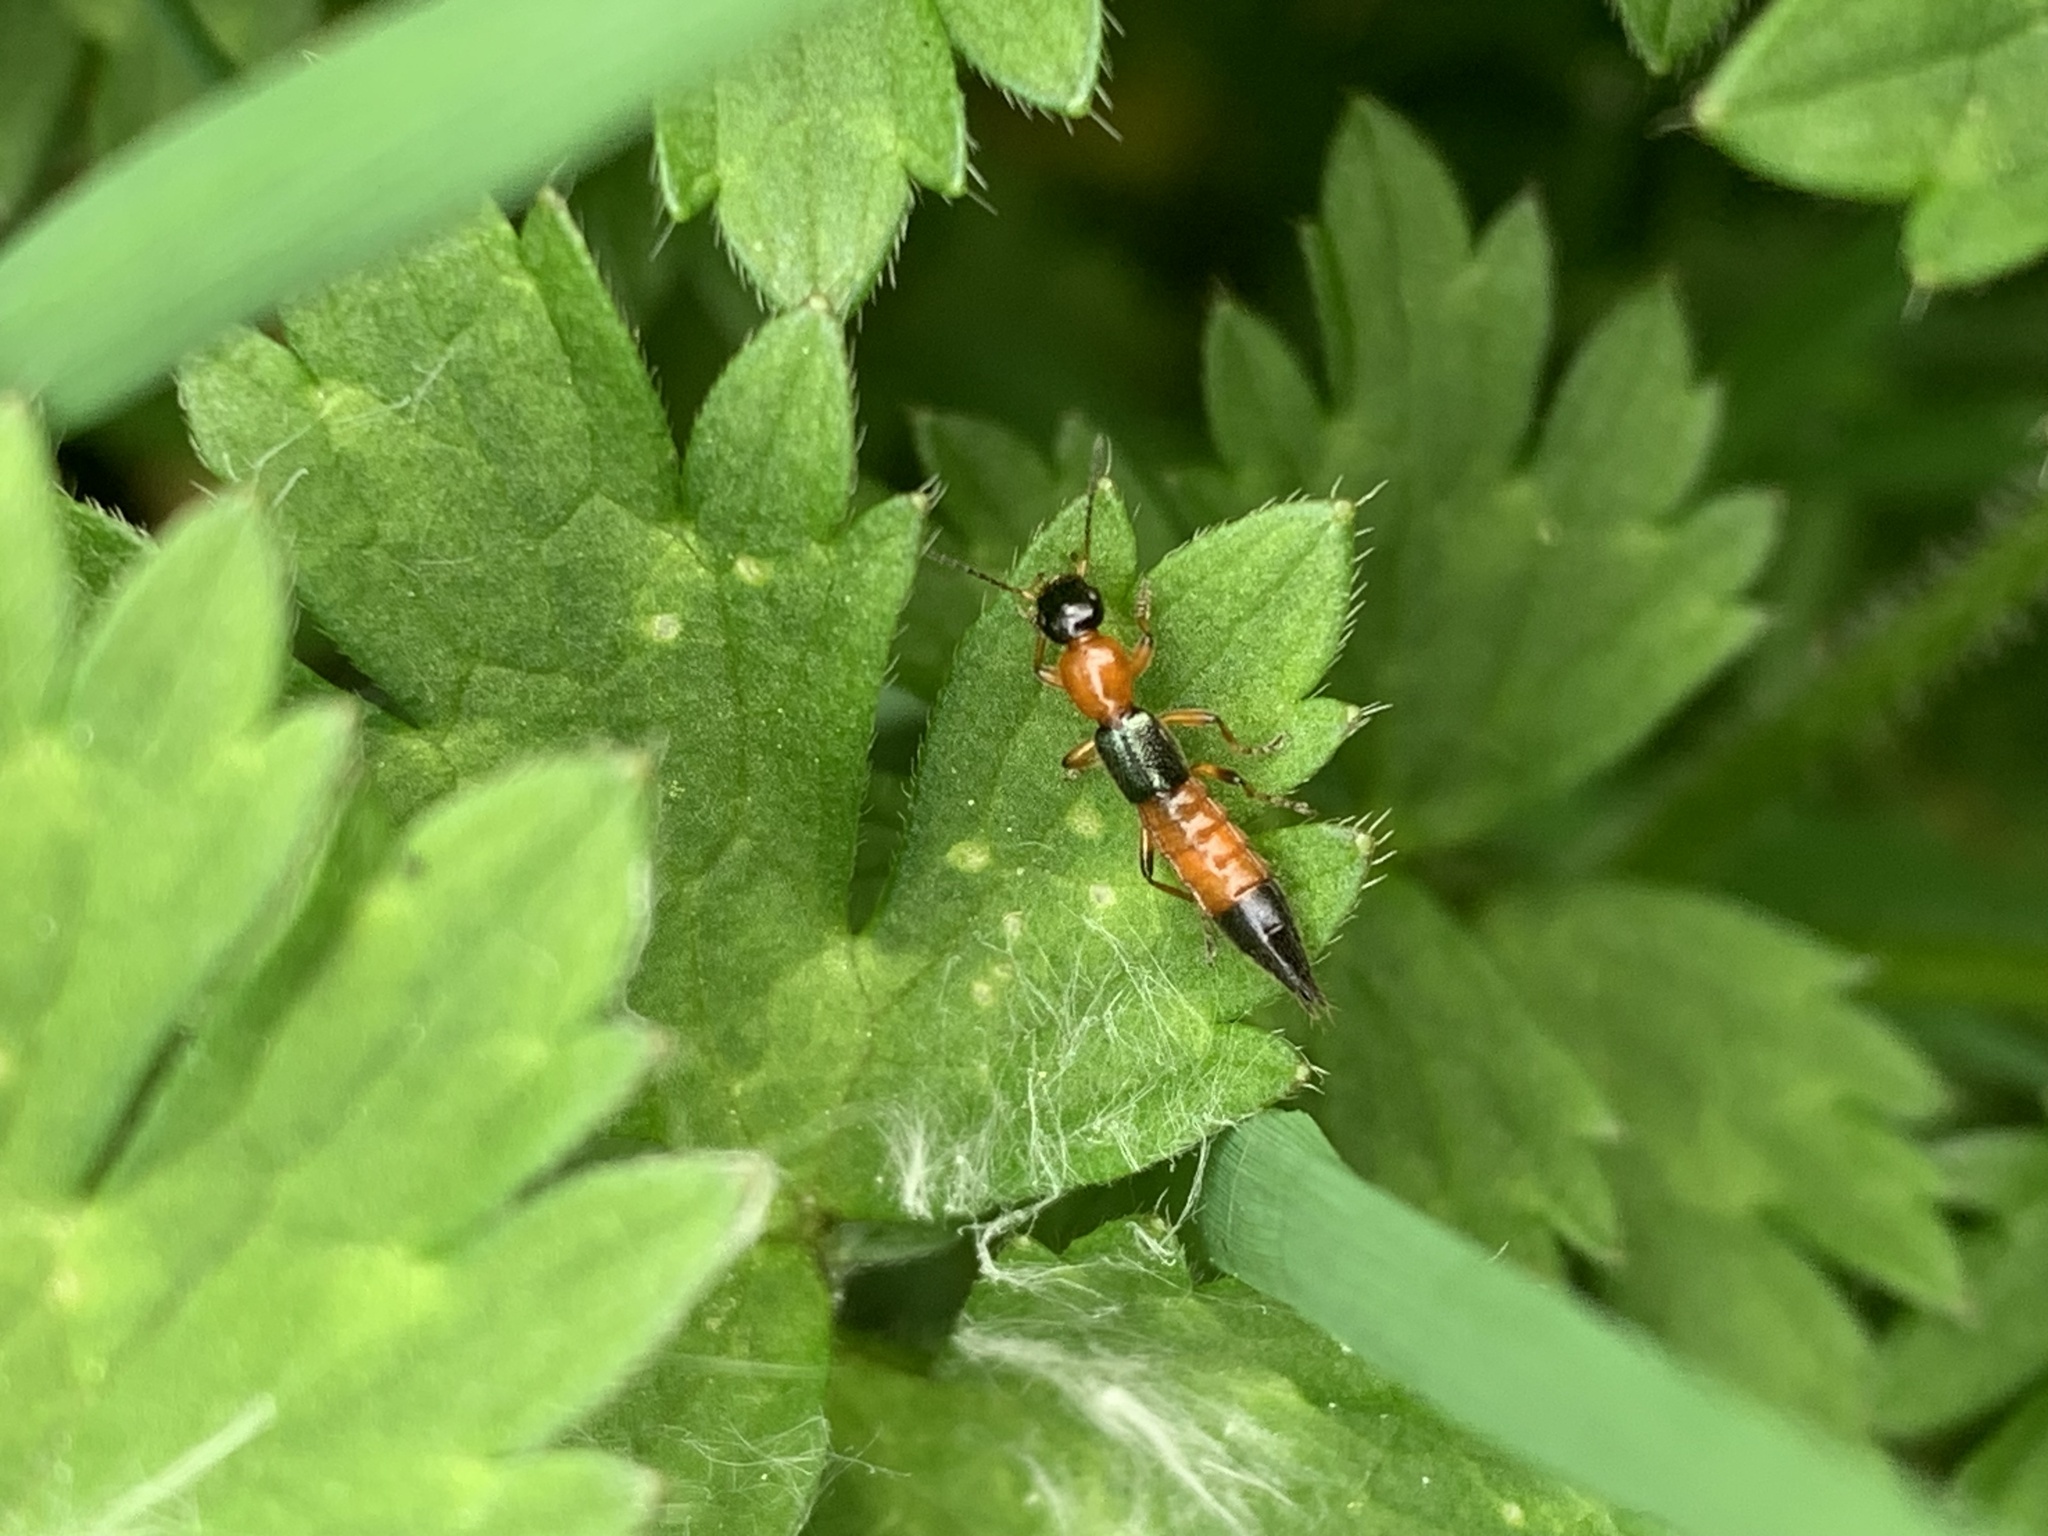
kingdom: Animalia
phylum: Arthropoda
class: Insecta
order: Coleoptera
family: Staphylinidae
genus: Paederus
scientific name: Paederus caligatus
